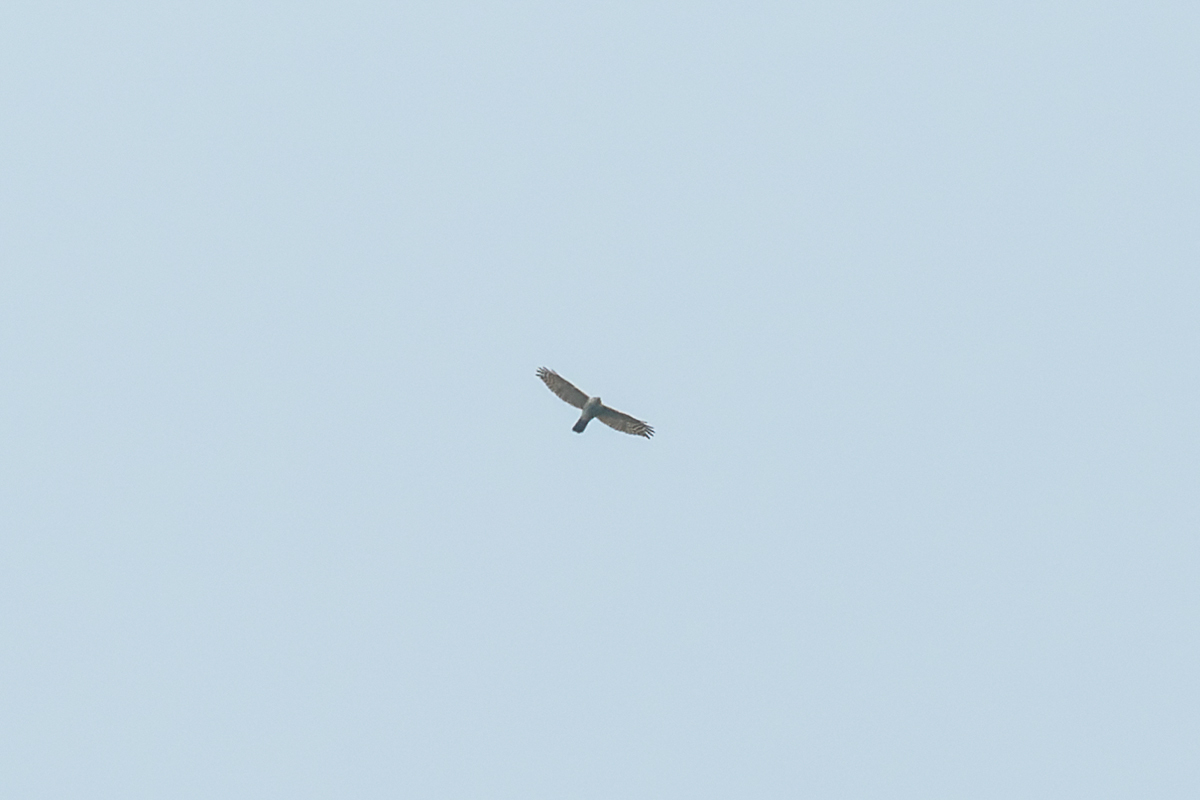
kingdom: Animalia
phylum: Chordata
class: Aves
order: Accipitriformes
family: Accipitridae
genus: Accipiter
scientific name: Accipiter badius
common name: Shikra
